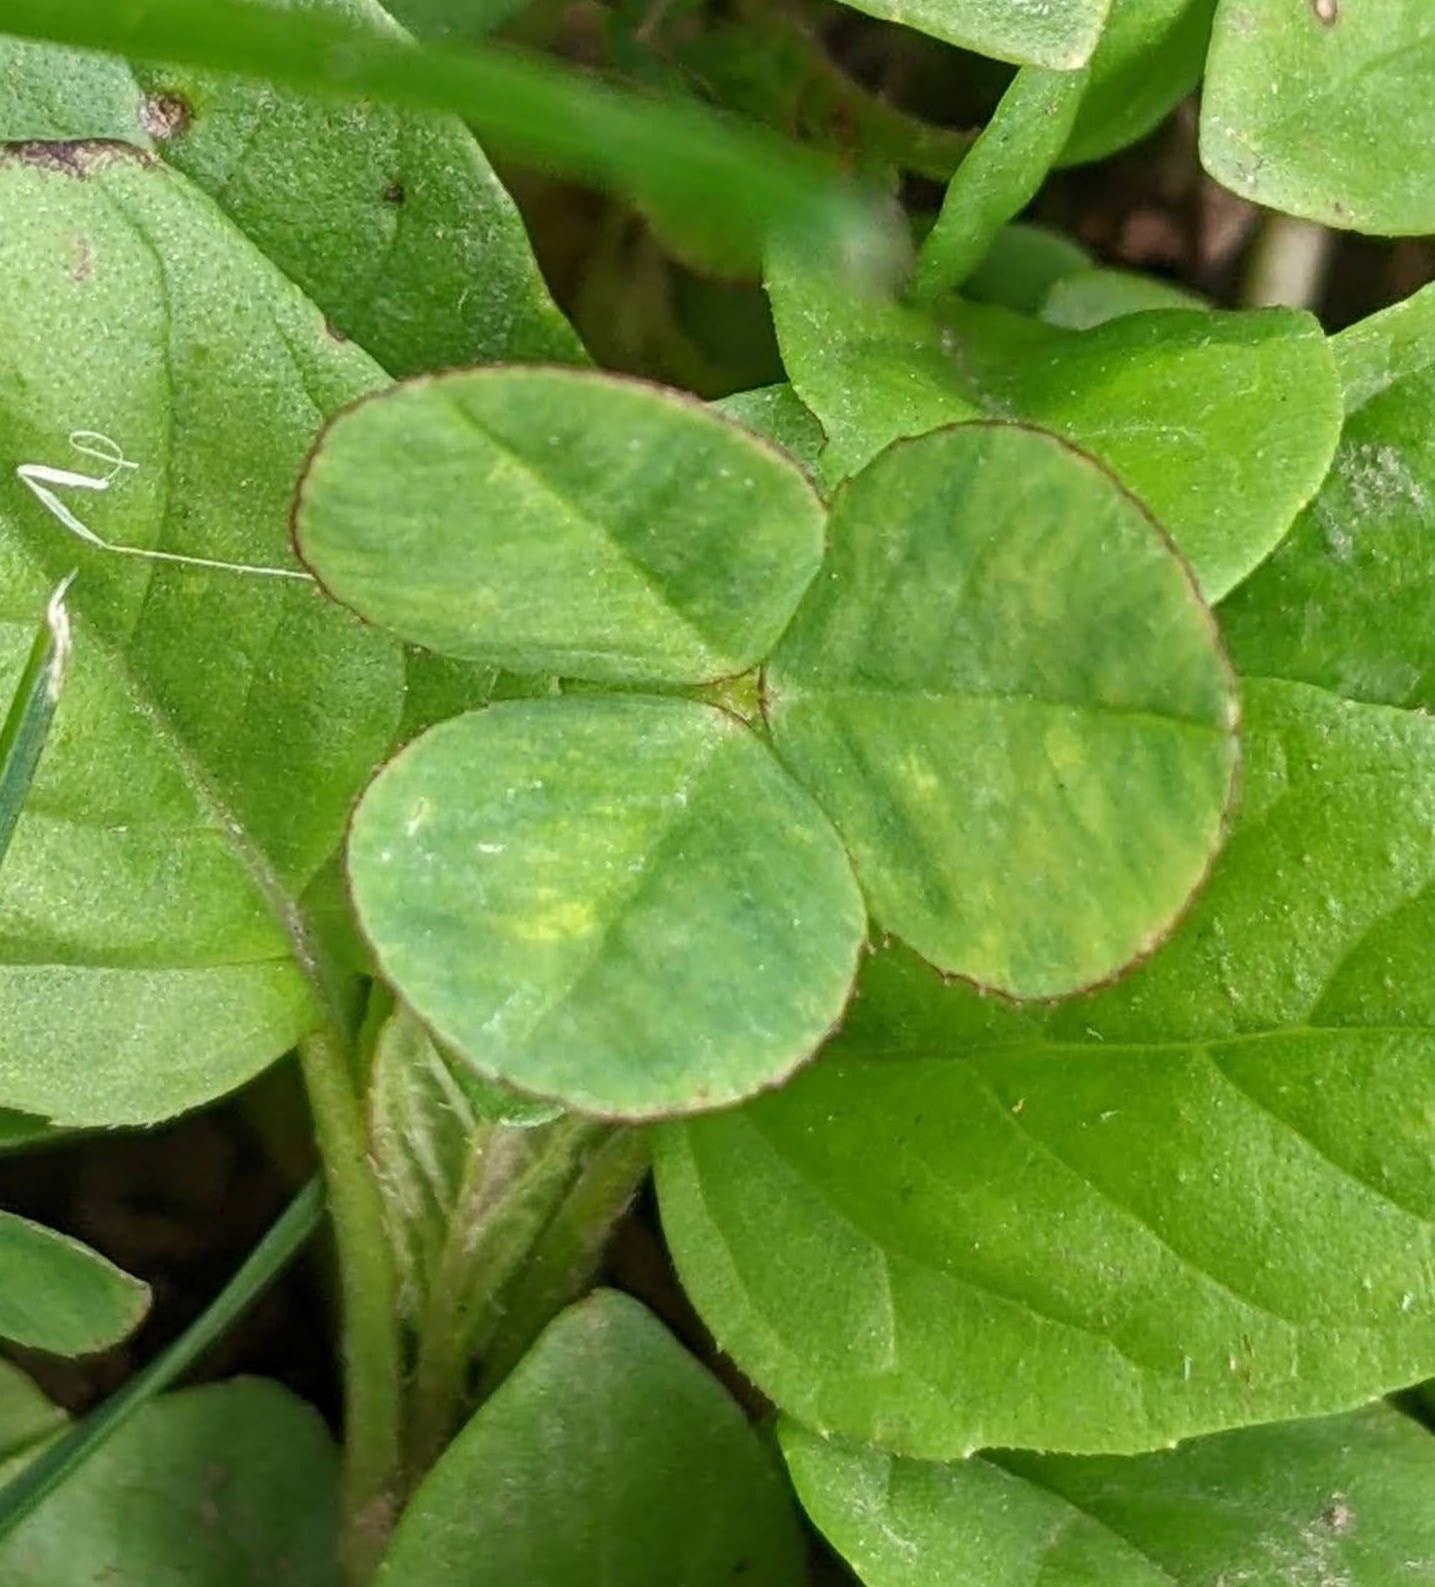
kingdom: Plantae
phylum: Tracheophyta
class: Magnoliopsida
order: Fabales
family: Fabaceae
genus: Trifolium
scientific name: Trifolium repens
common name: White clover
